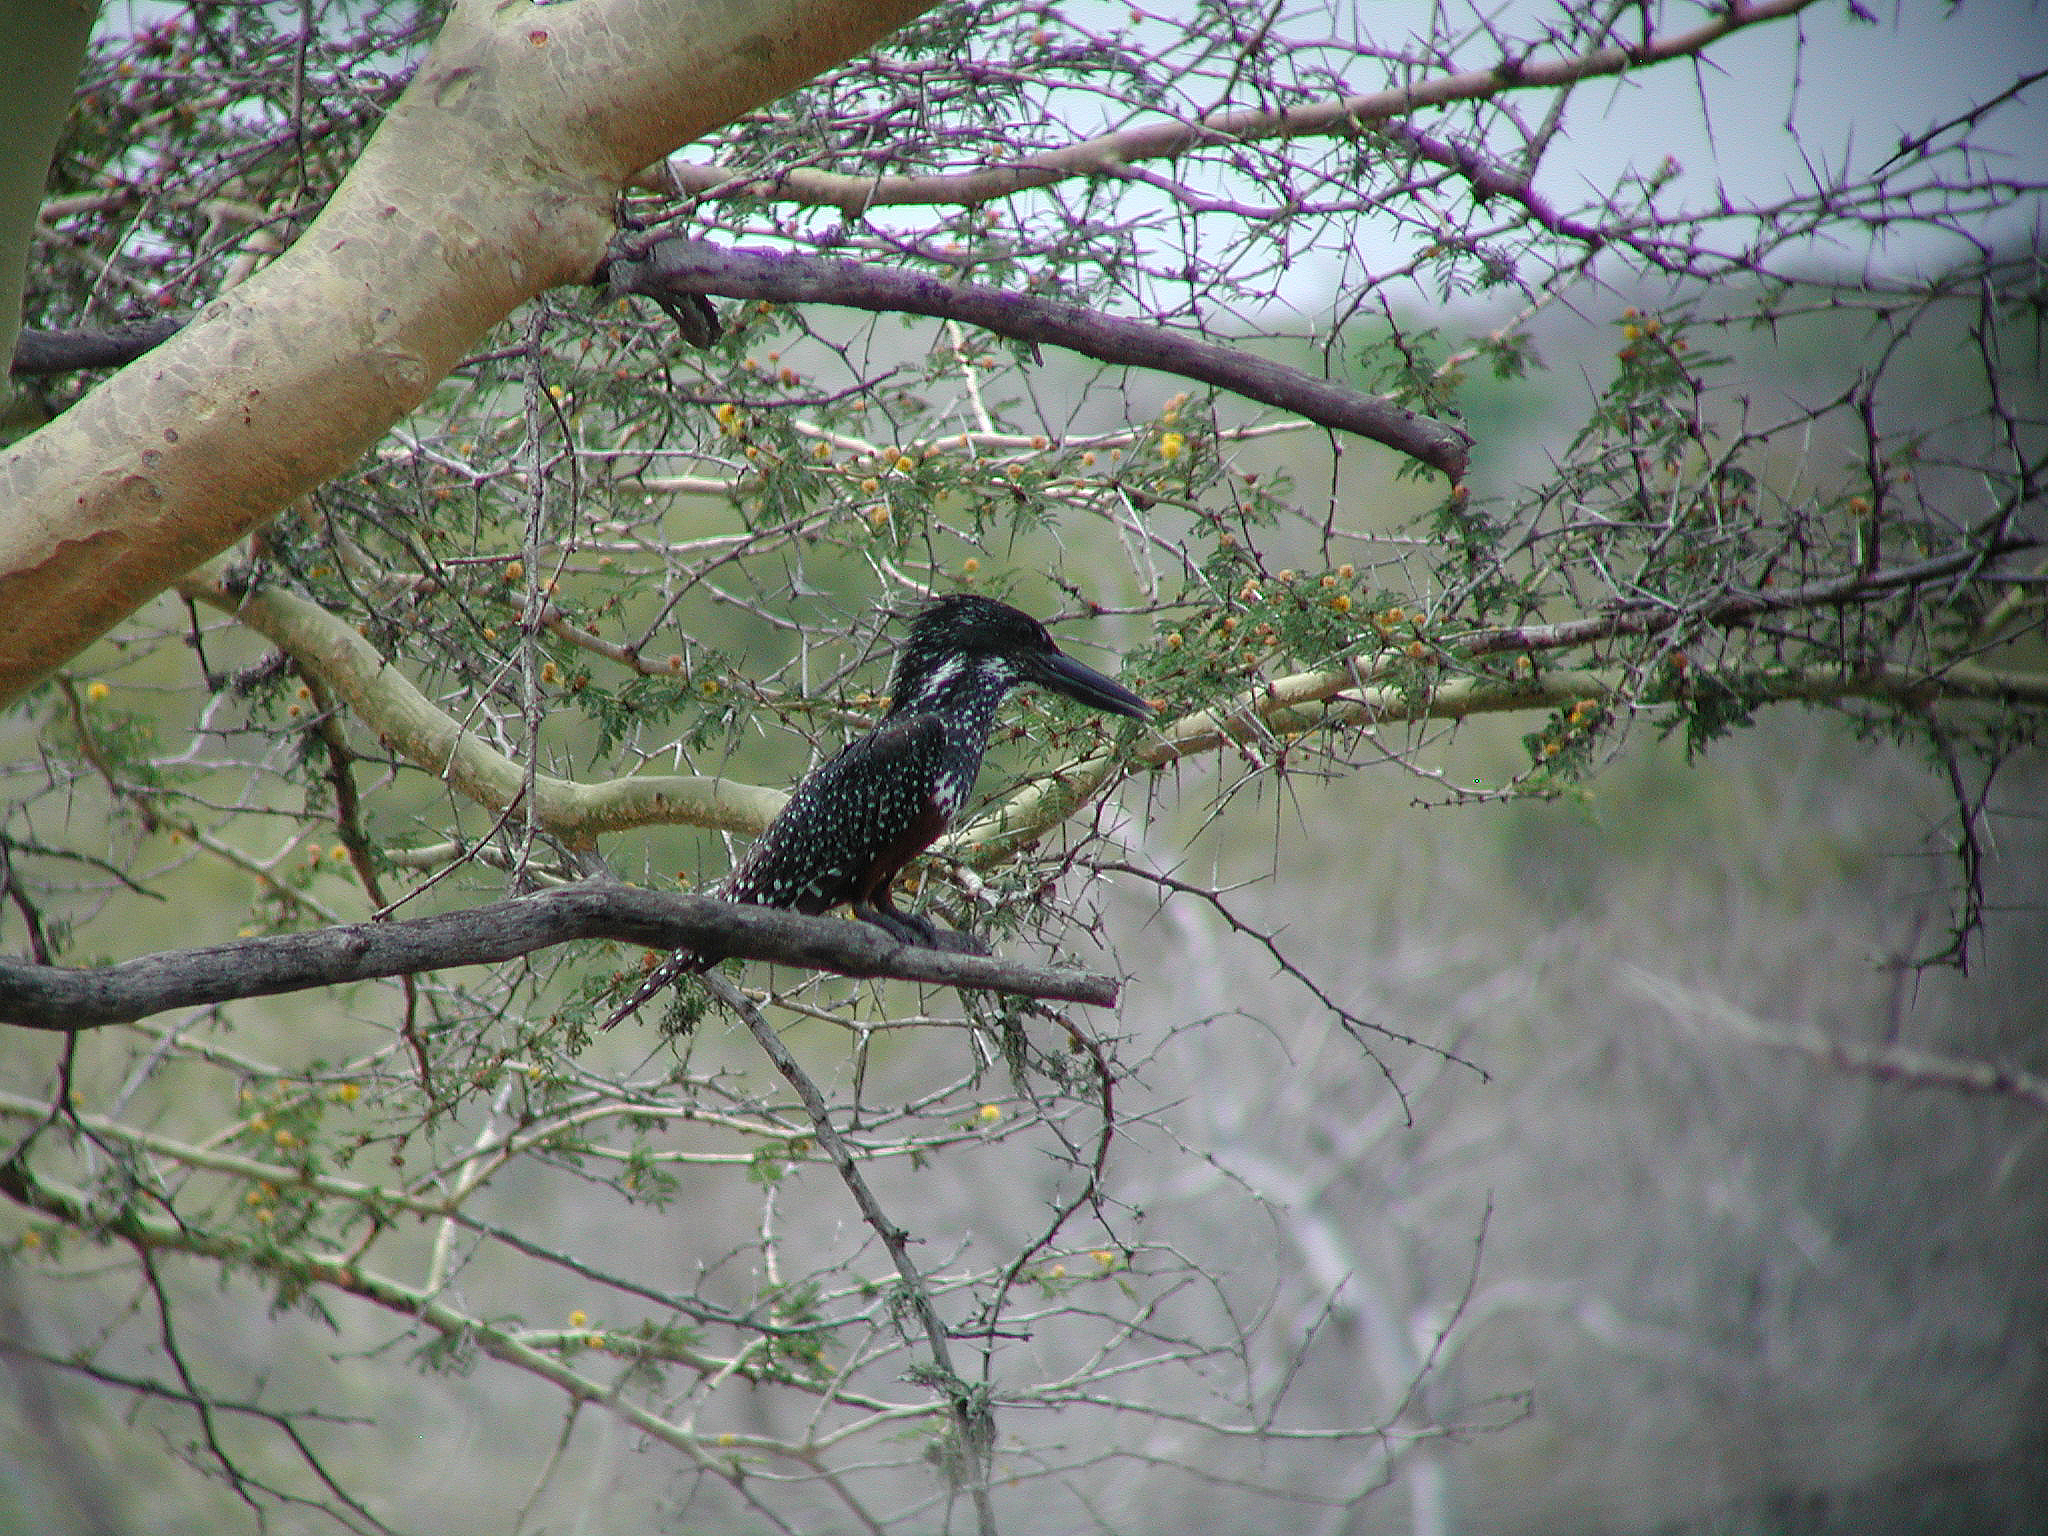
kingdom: Animalia
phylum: Chordata
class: Aves
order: Coraciiformes
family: Alcedinidae
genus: Megaceryle
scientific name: Megaceryle maxima
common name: Giant kingfisher
